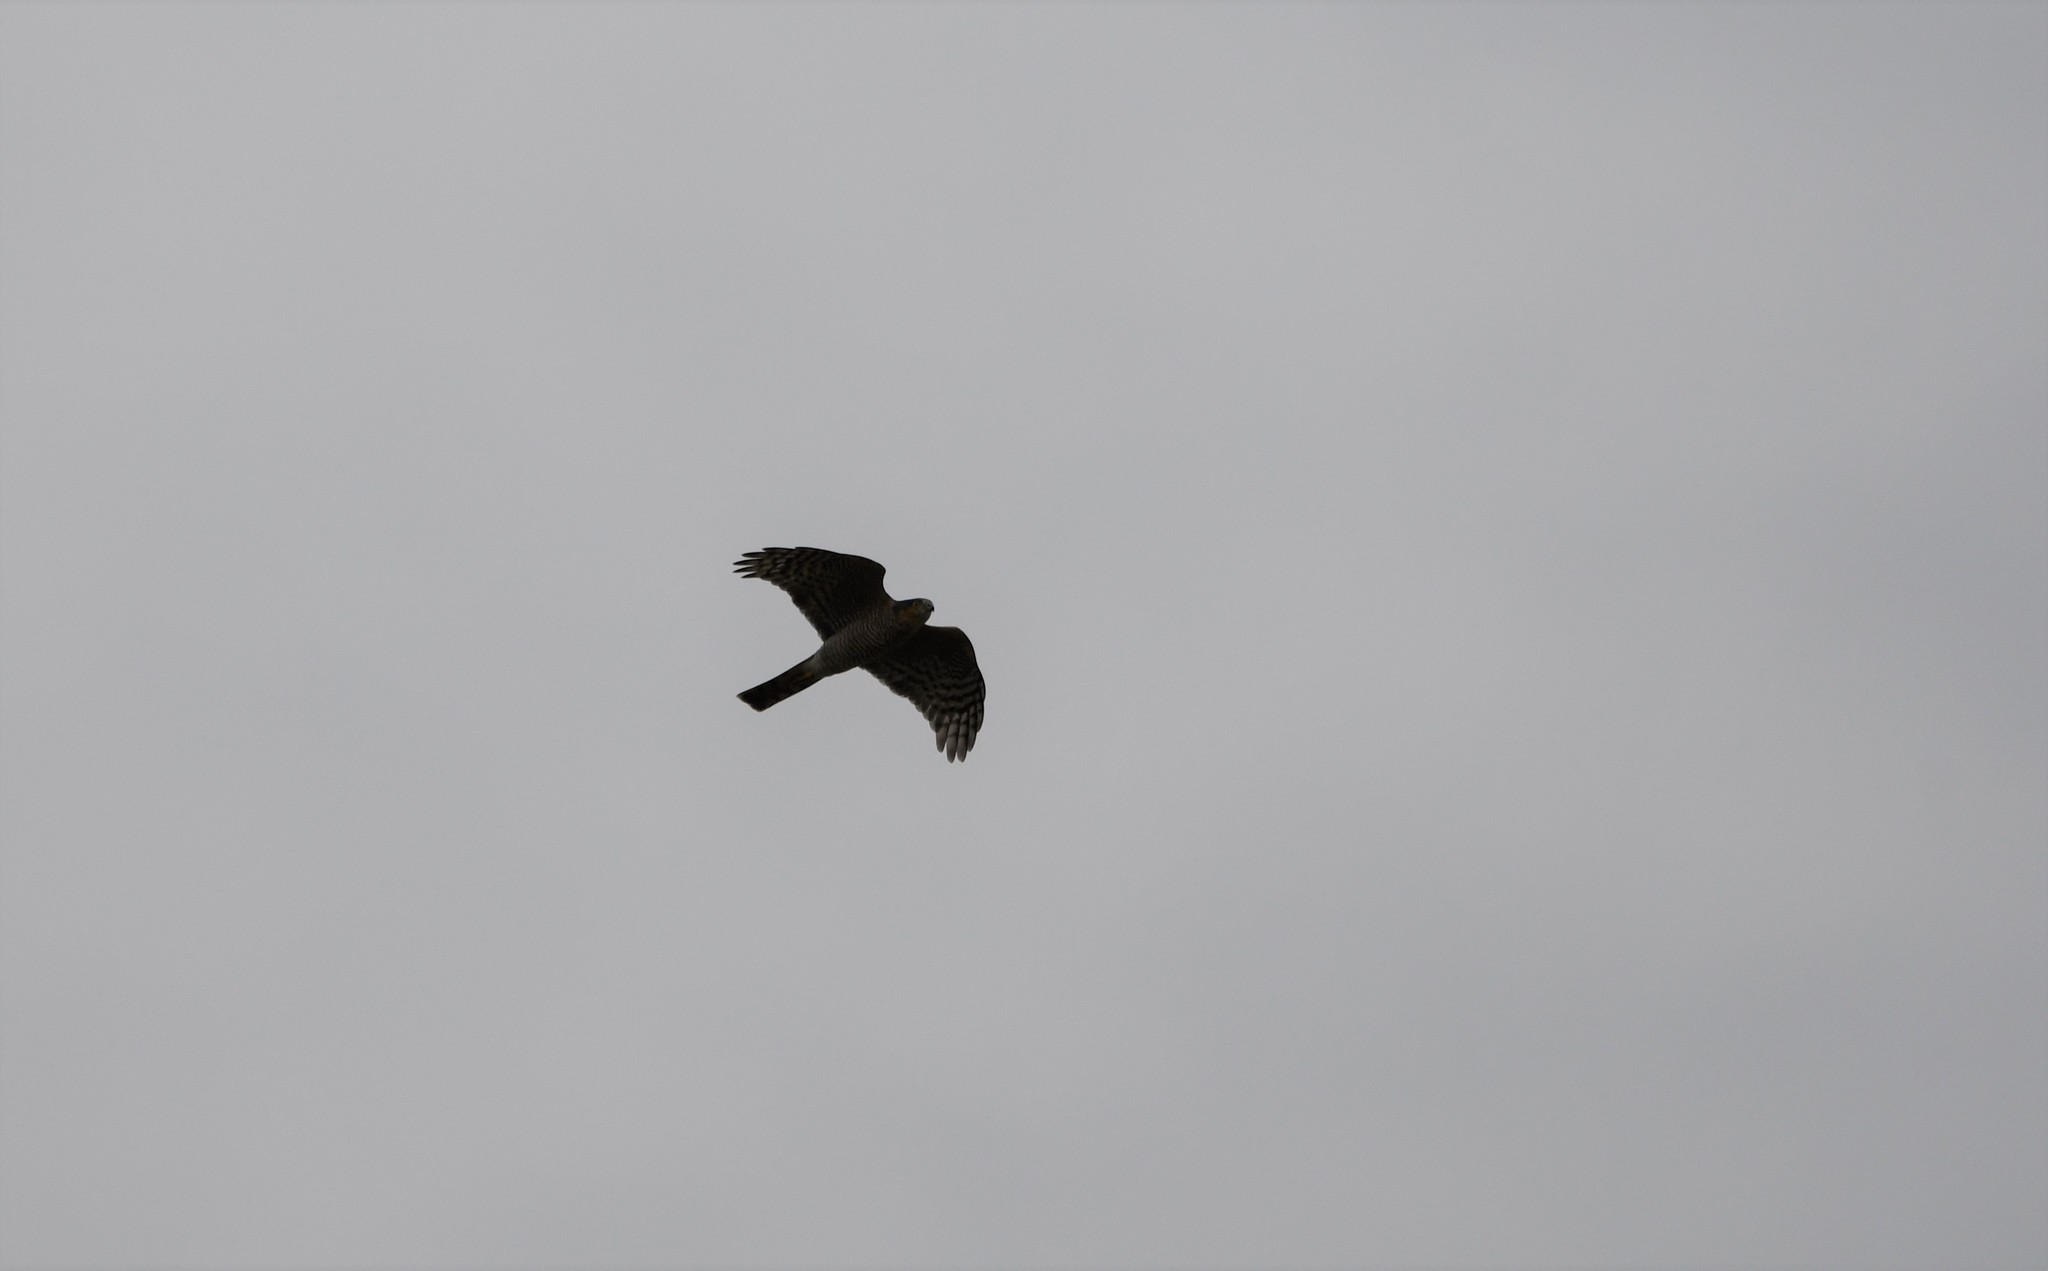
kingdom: Animalia
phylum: Chordata
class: Aves
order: Accipitriformes
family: Accipitridae
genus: Accipiter
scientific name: Accipiter nisus
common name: Eurasian sparrowhawk
